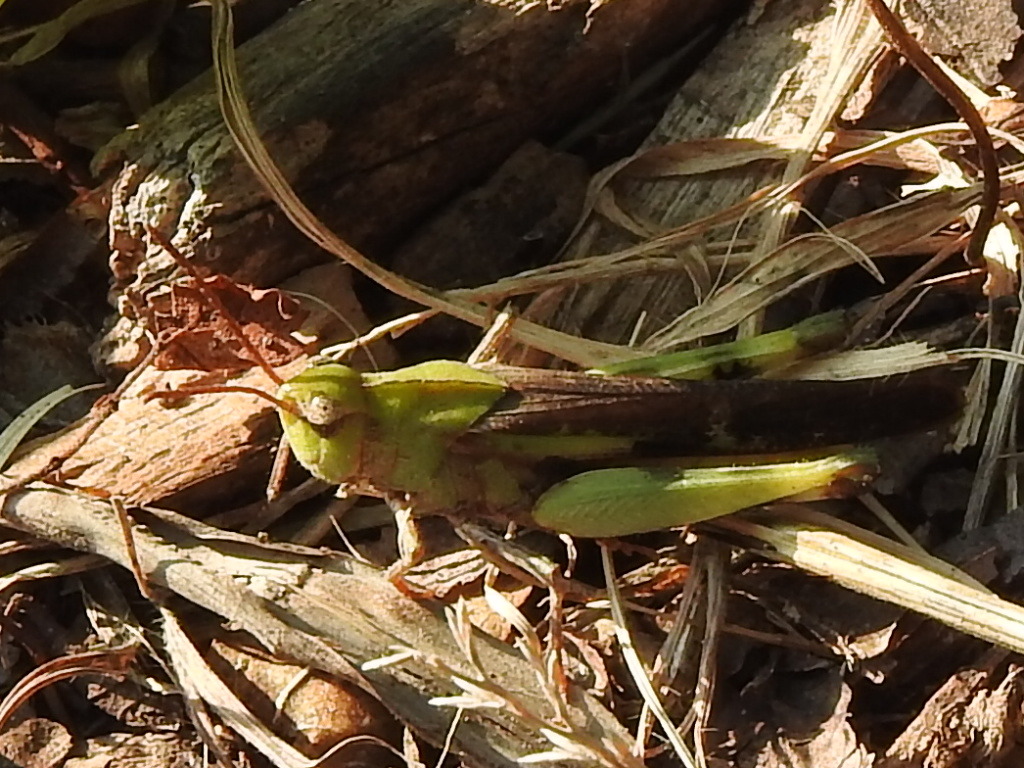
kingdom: Animalia
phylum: Arthropoda
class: Insecta
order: Orthoptera
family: Acrididae
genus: Chortophaga
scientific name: Chortophaga viridifasciata
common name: Green-striped grasshopper
